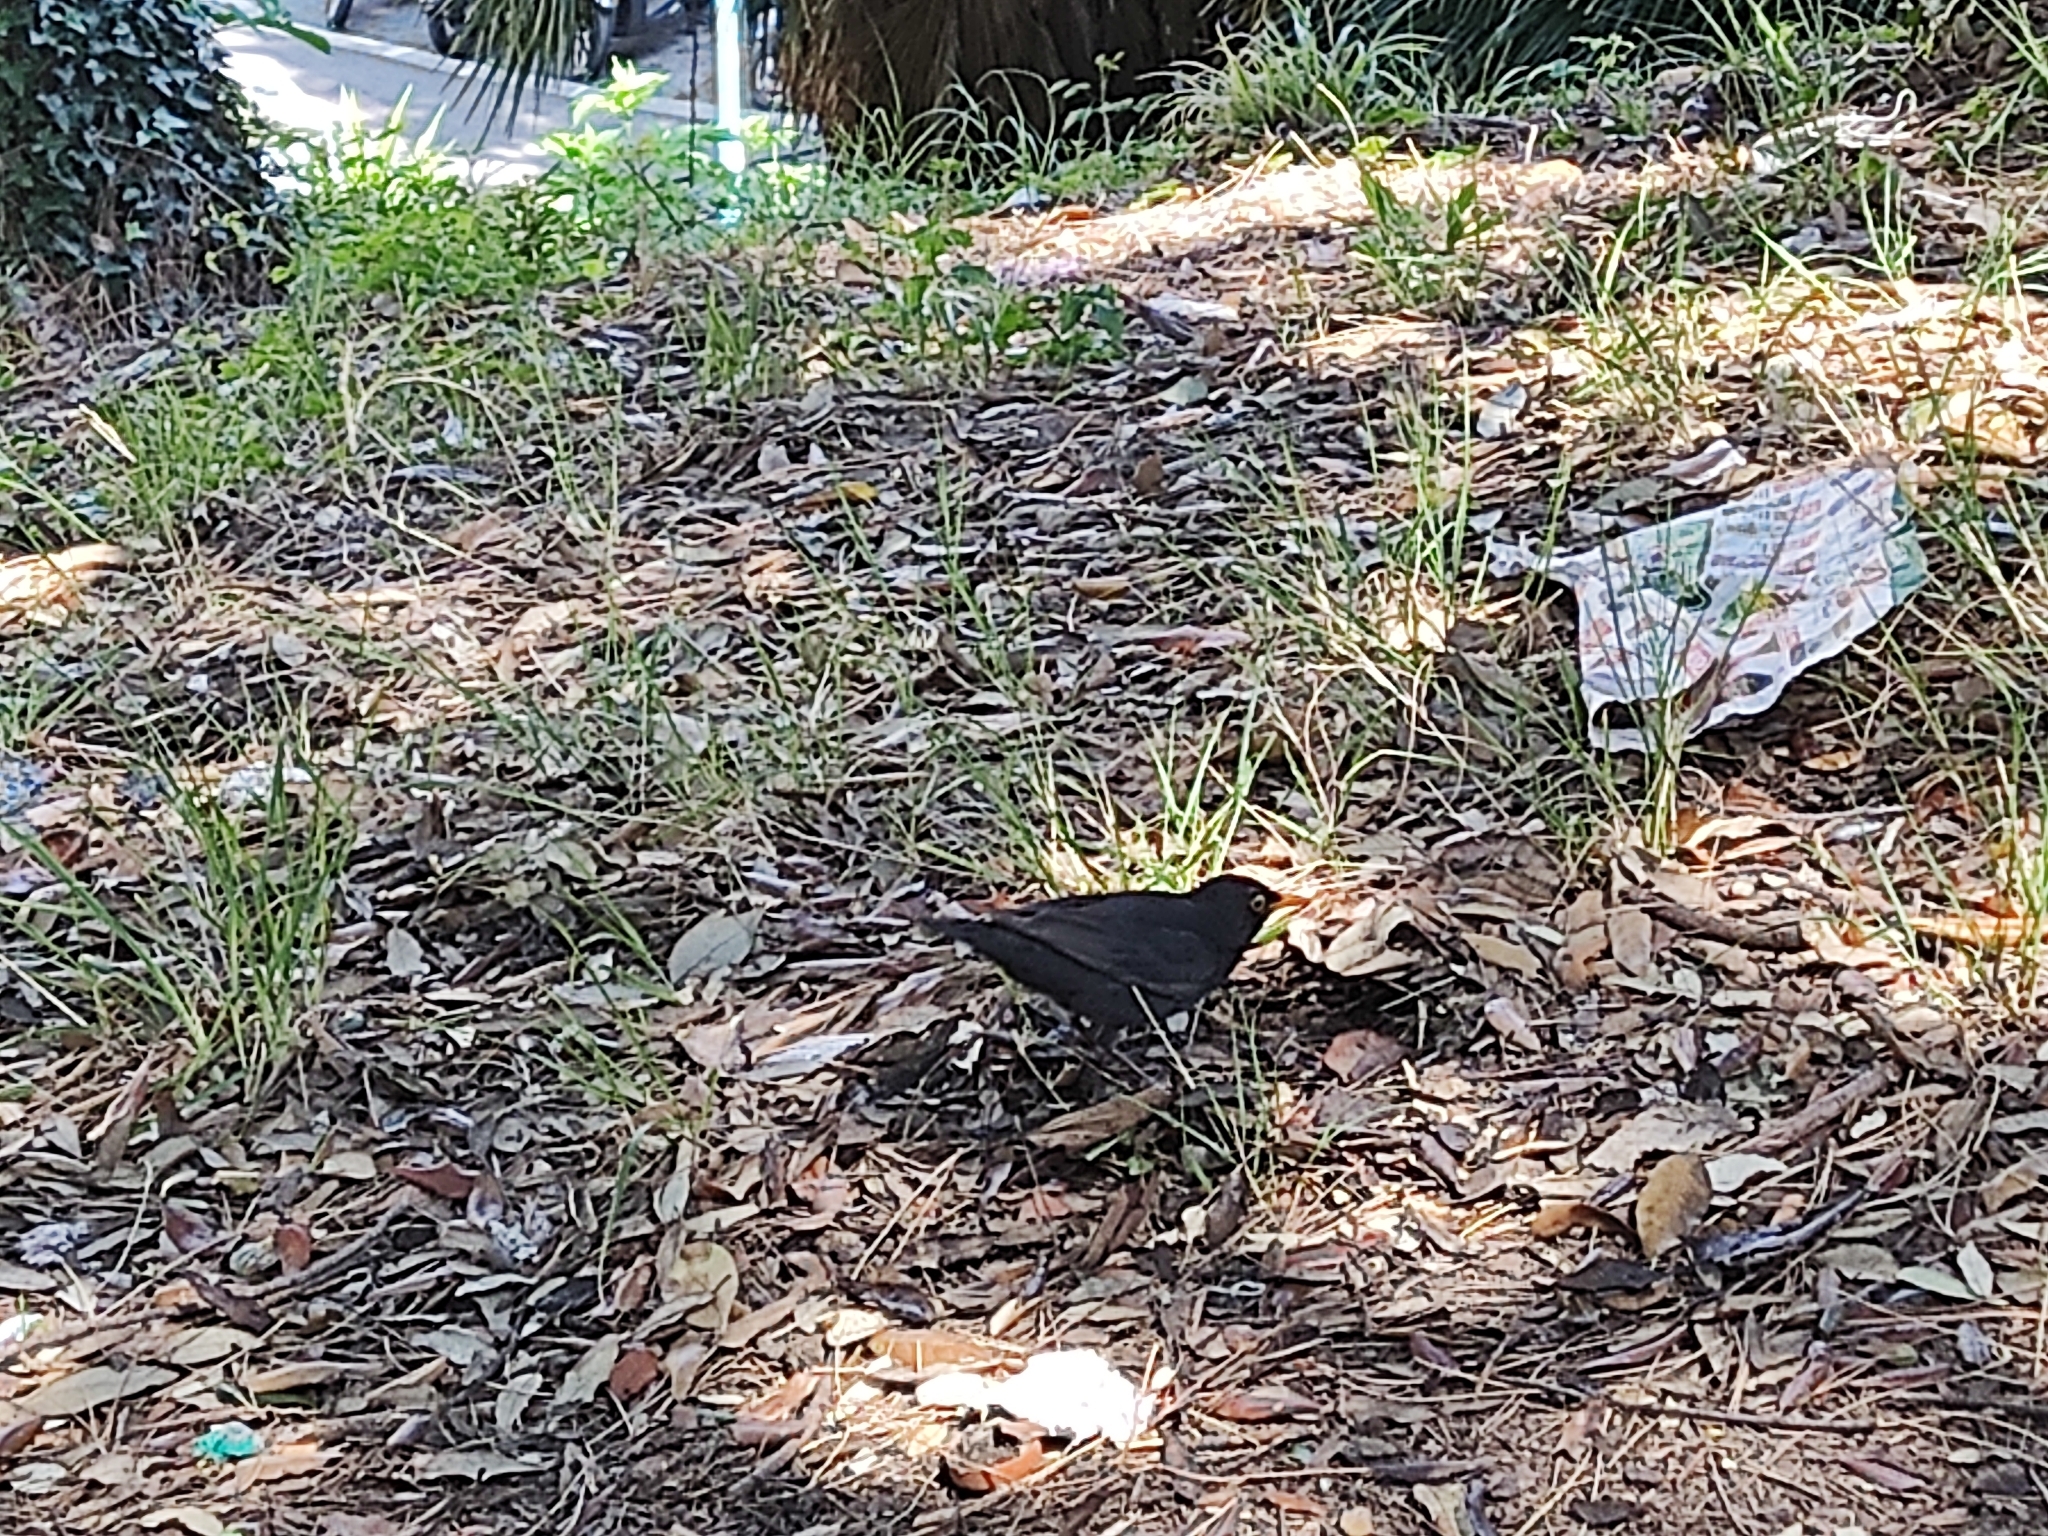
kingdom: Animalia
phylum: Chordata
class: Aves
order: Passeriformes
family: Turdidae
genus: Turdus
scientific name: Turdus merula
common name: Common blackbird
